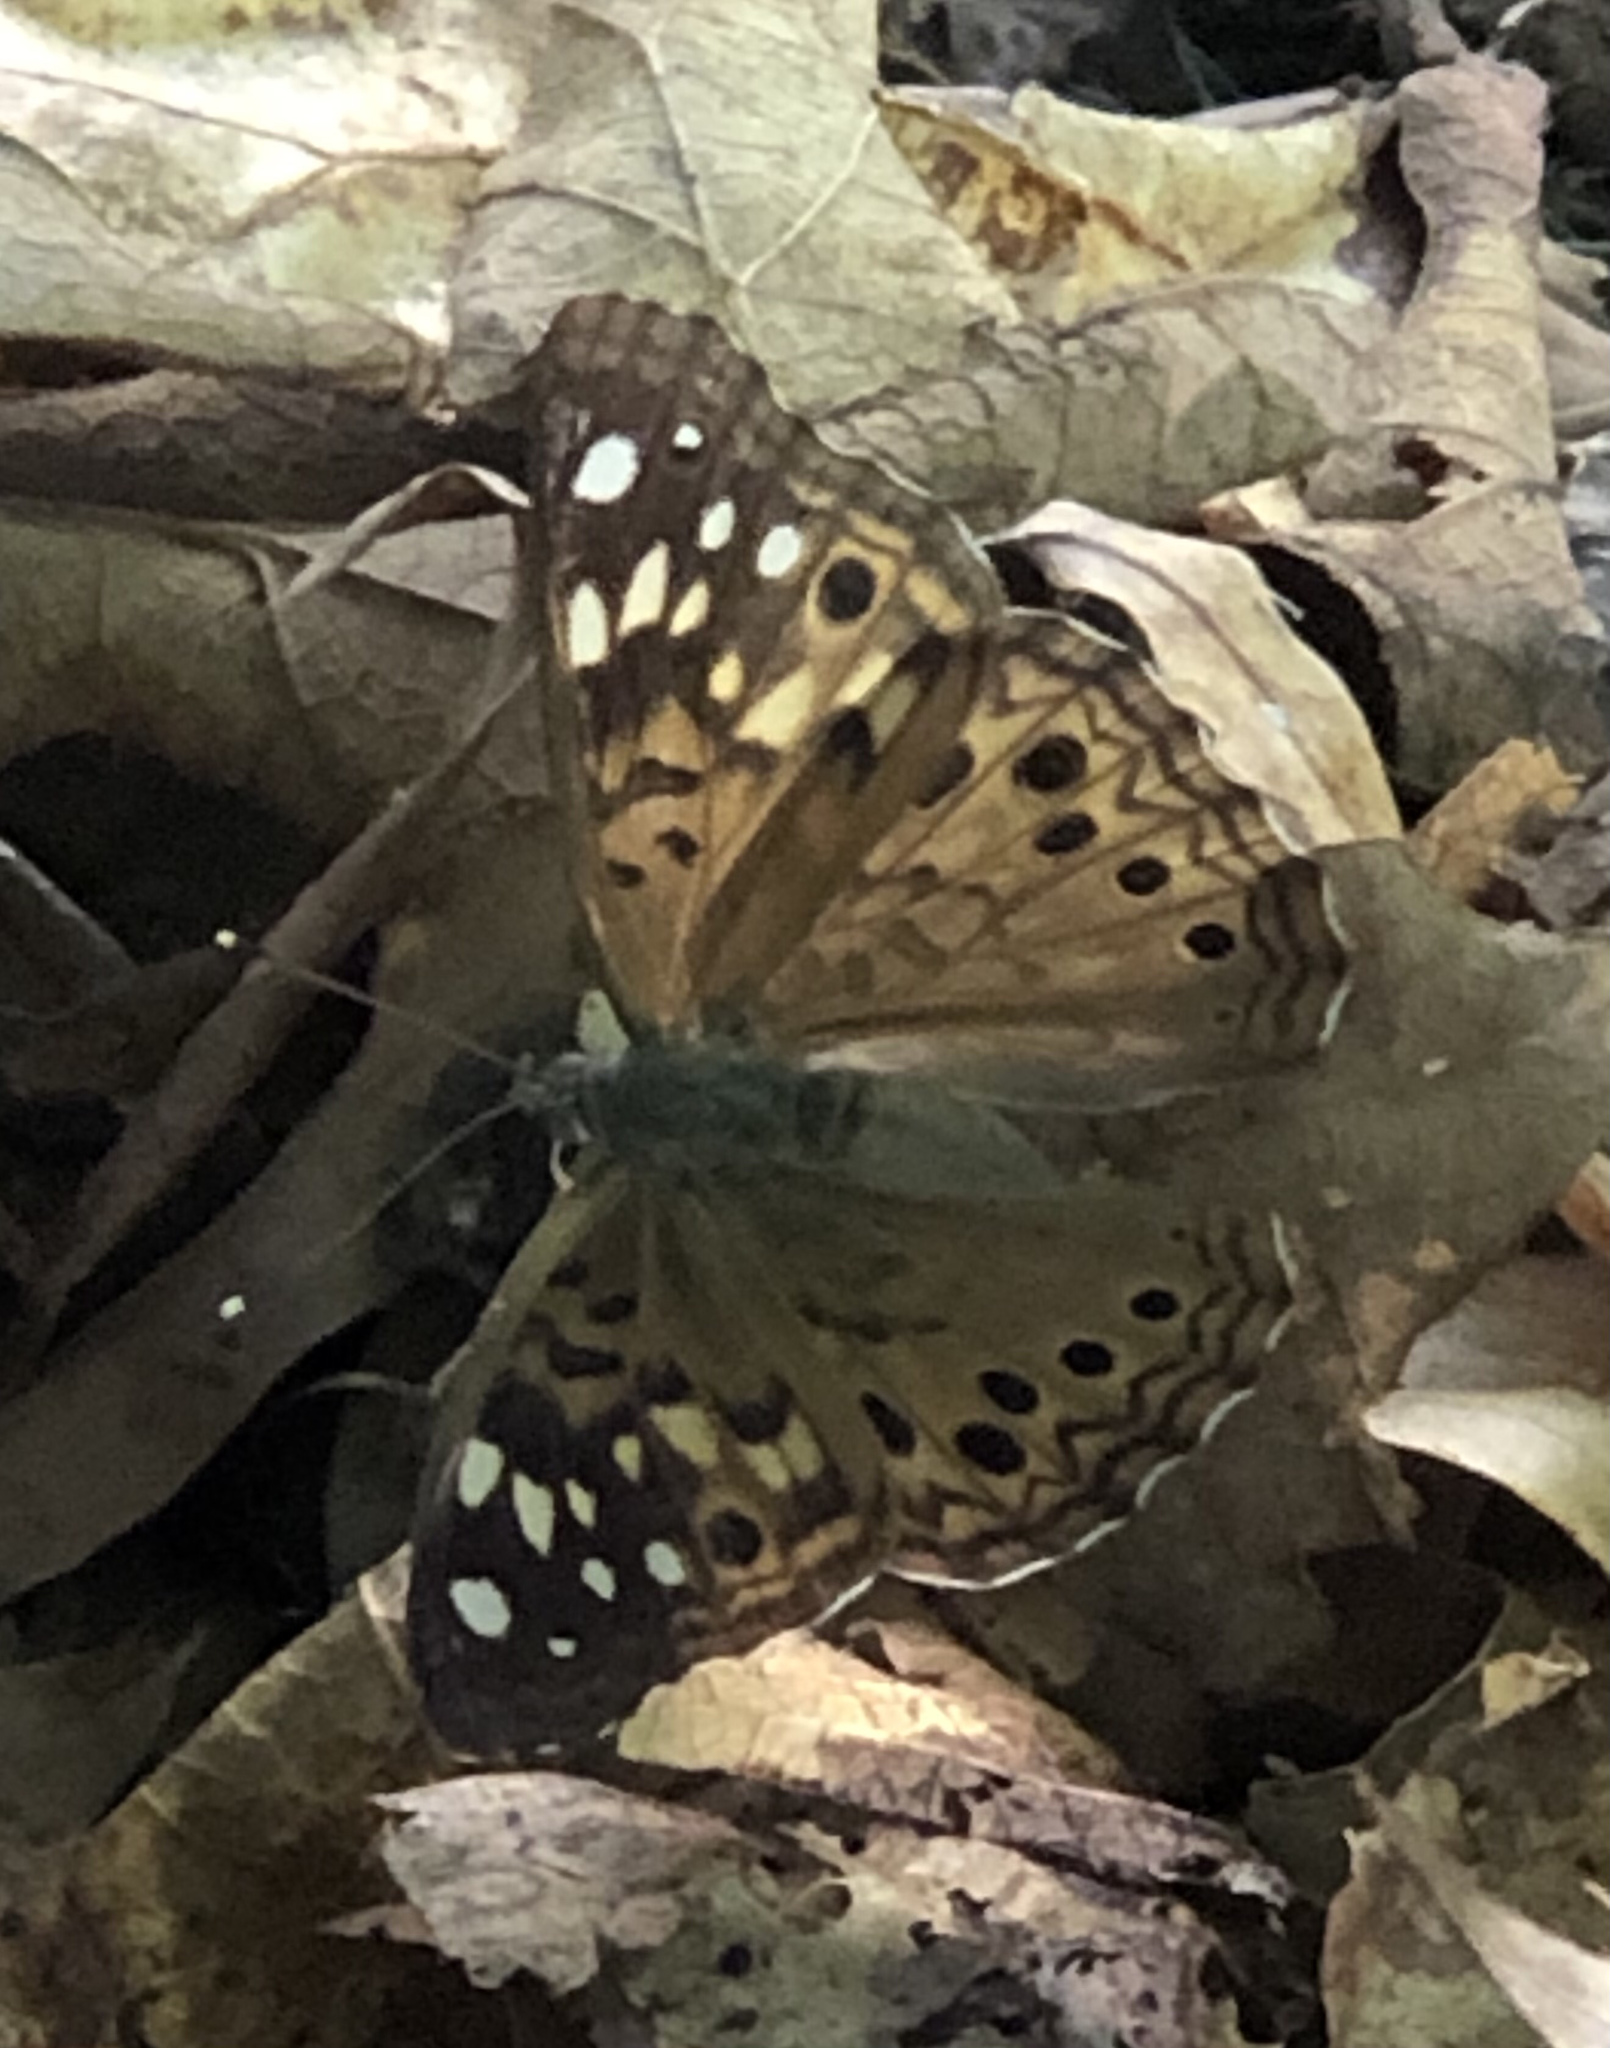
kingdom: Animalia
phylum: Arthropoda
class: Insecta
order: Lepidoptera
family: Nymphalidae
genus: Asterocampa
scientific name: Asterocampa celtis
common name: Hackberry emperor
